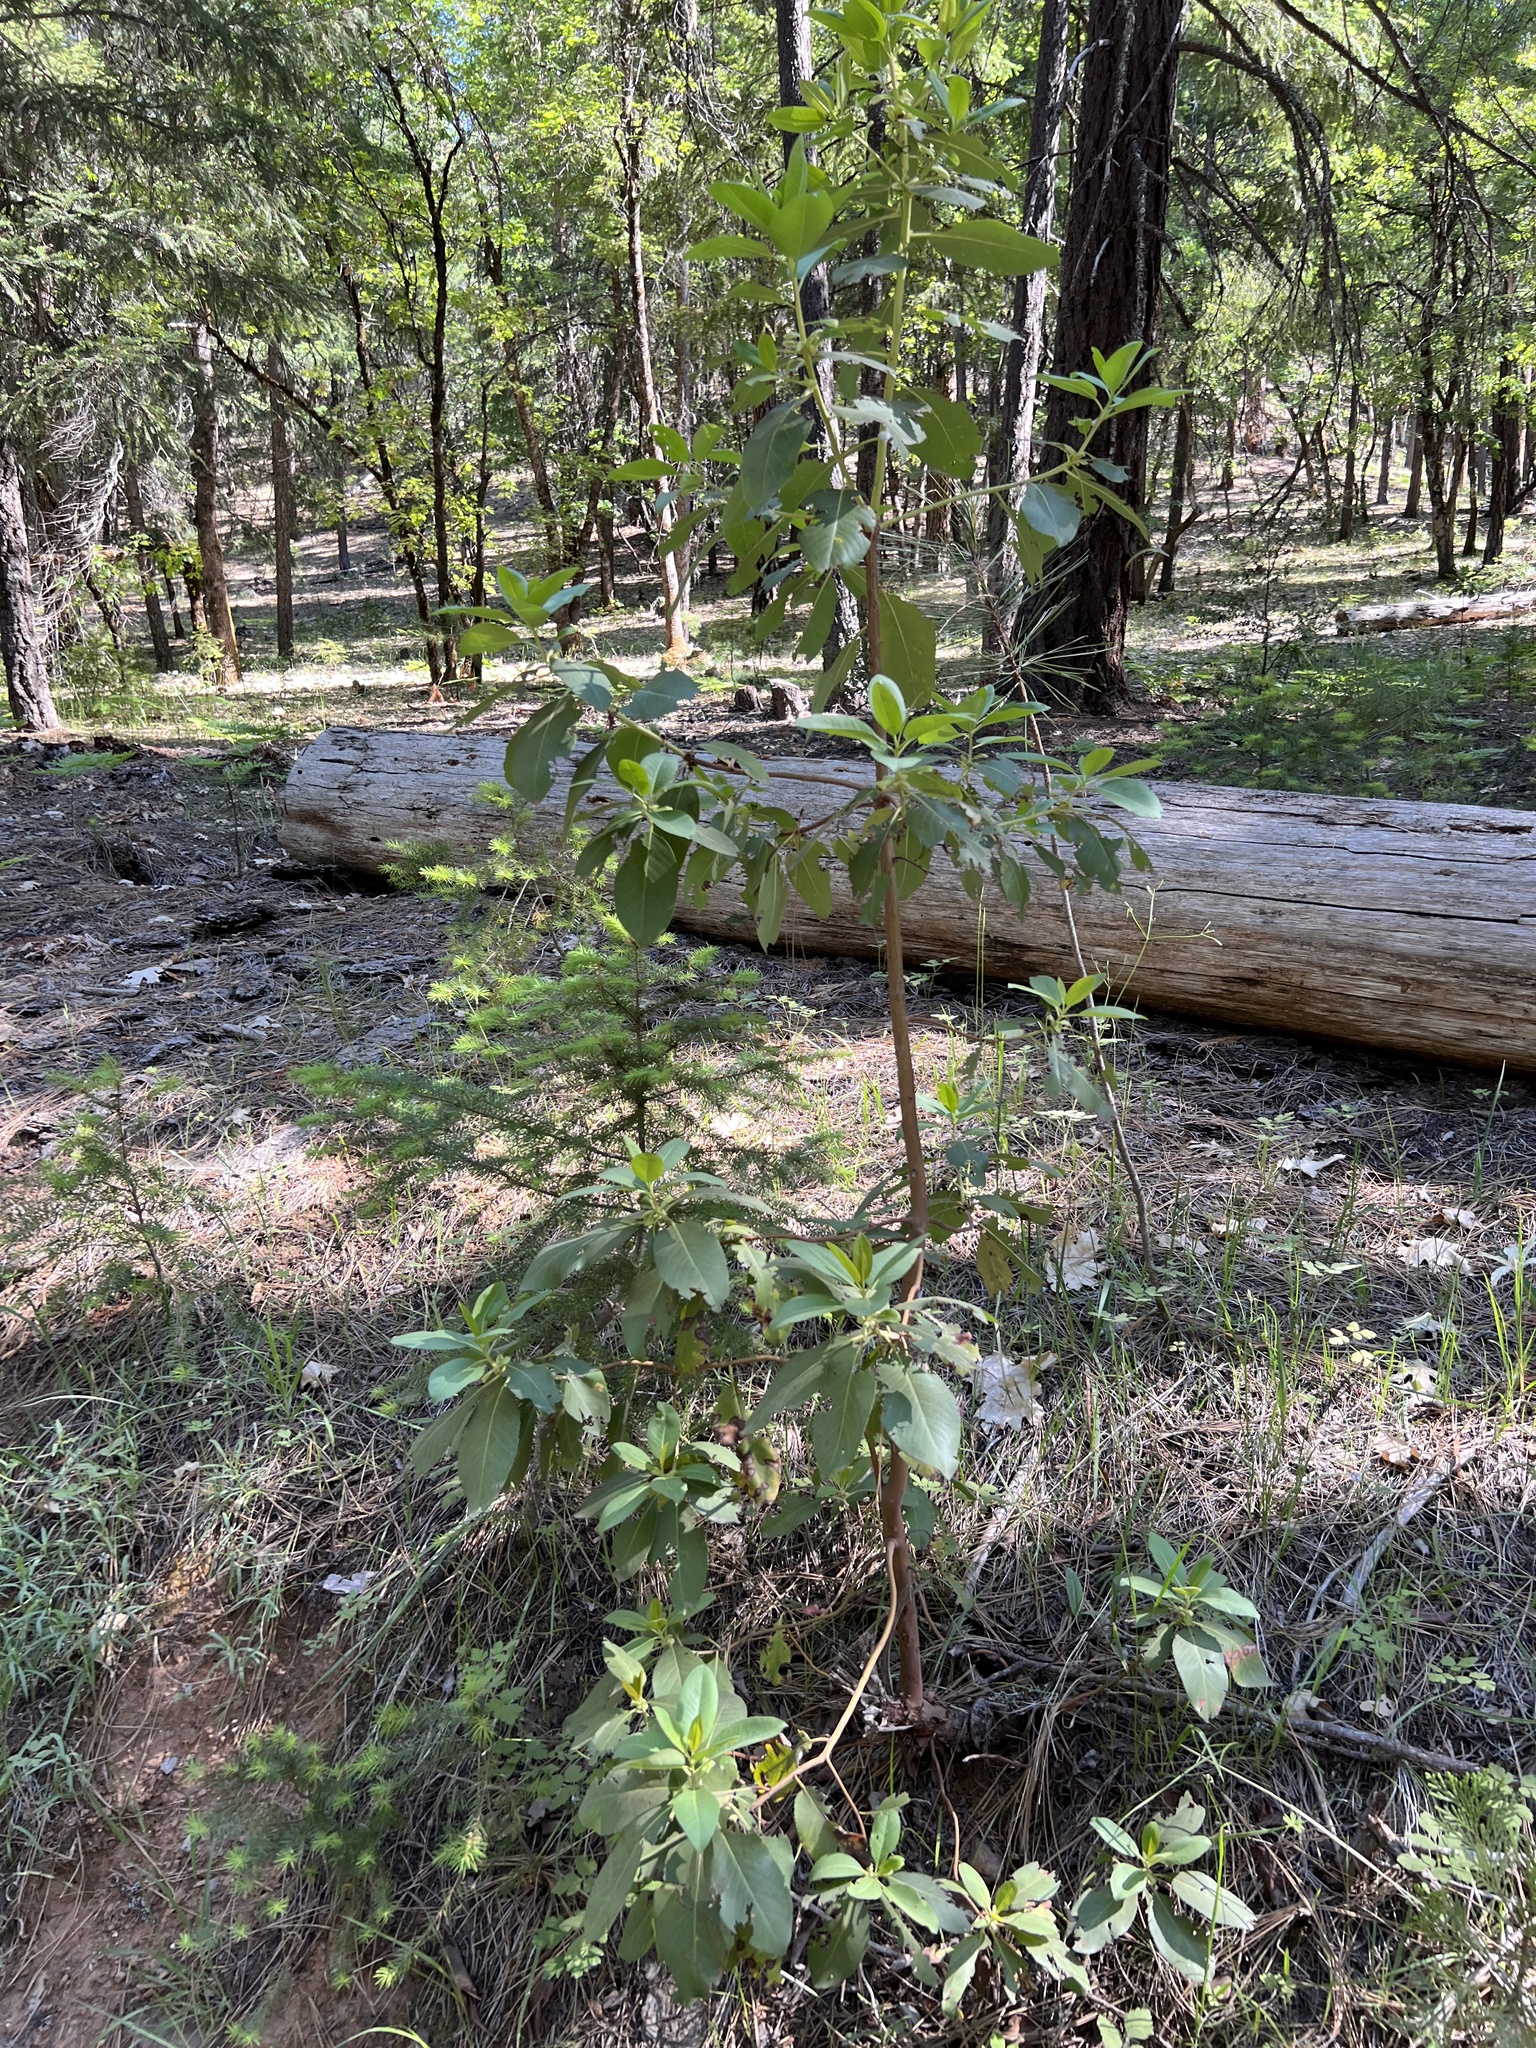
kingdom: Plantae
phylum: Tracheophyta
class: Magnoliopsida
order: Ericales
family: Ericaceae
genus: Arbutus
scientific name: Arbutus menziesii
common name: Pacific madrone
